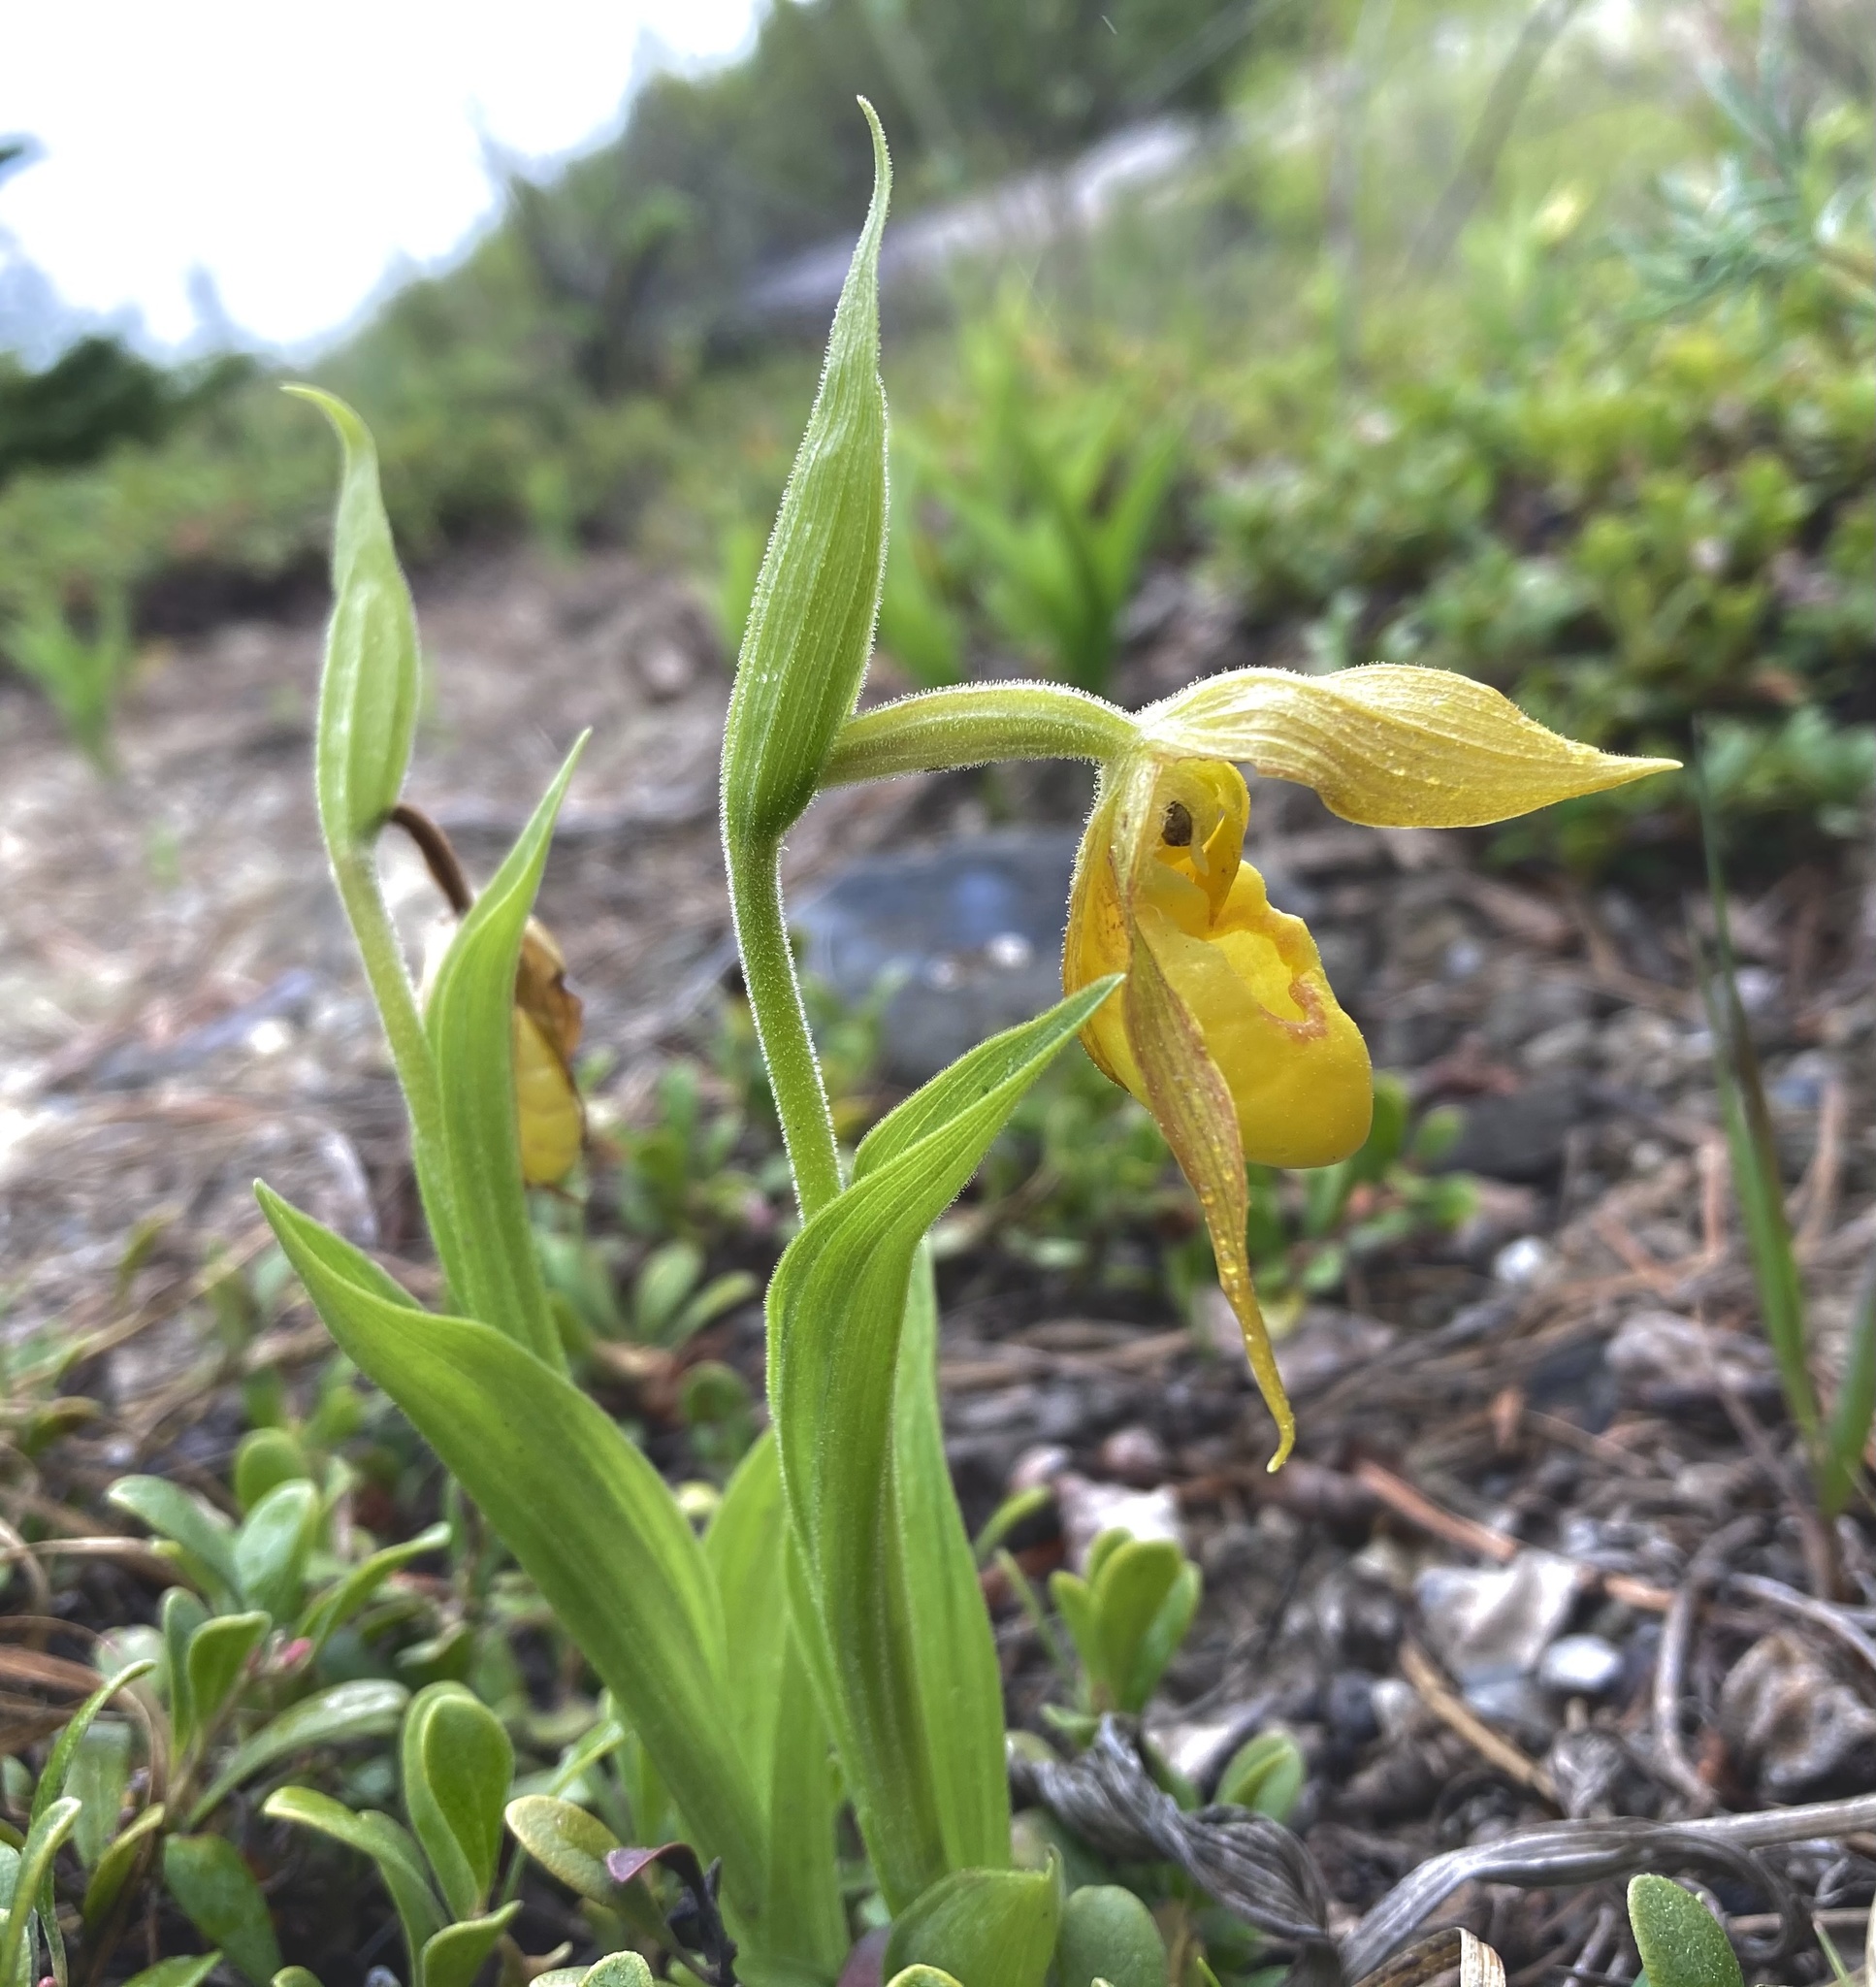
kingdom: Plantae
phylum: Tracheophyta
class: Liliopsida
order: Asparagales
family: Orchidaceae
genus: Cypripedium
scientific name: Cypripedium parviflorum
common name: American yellow lady's-slipper
